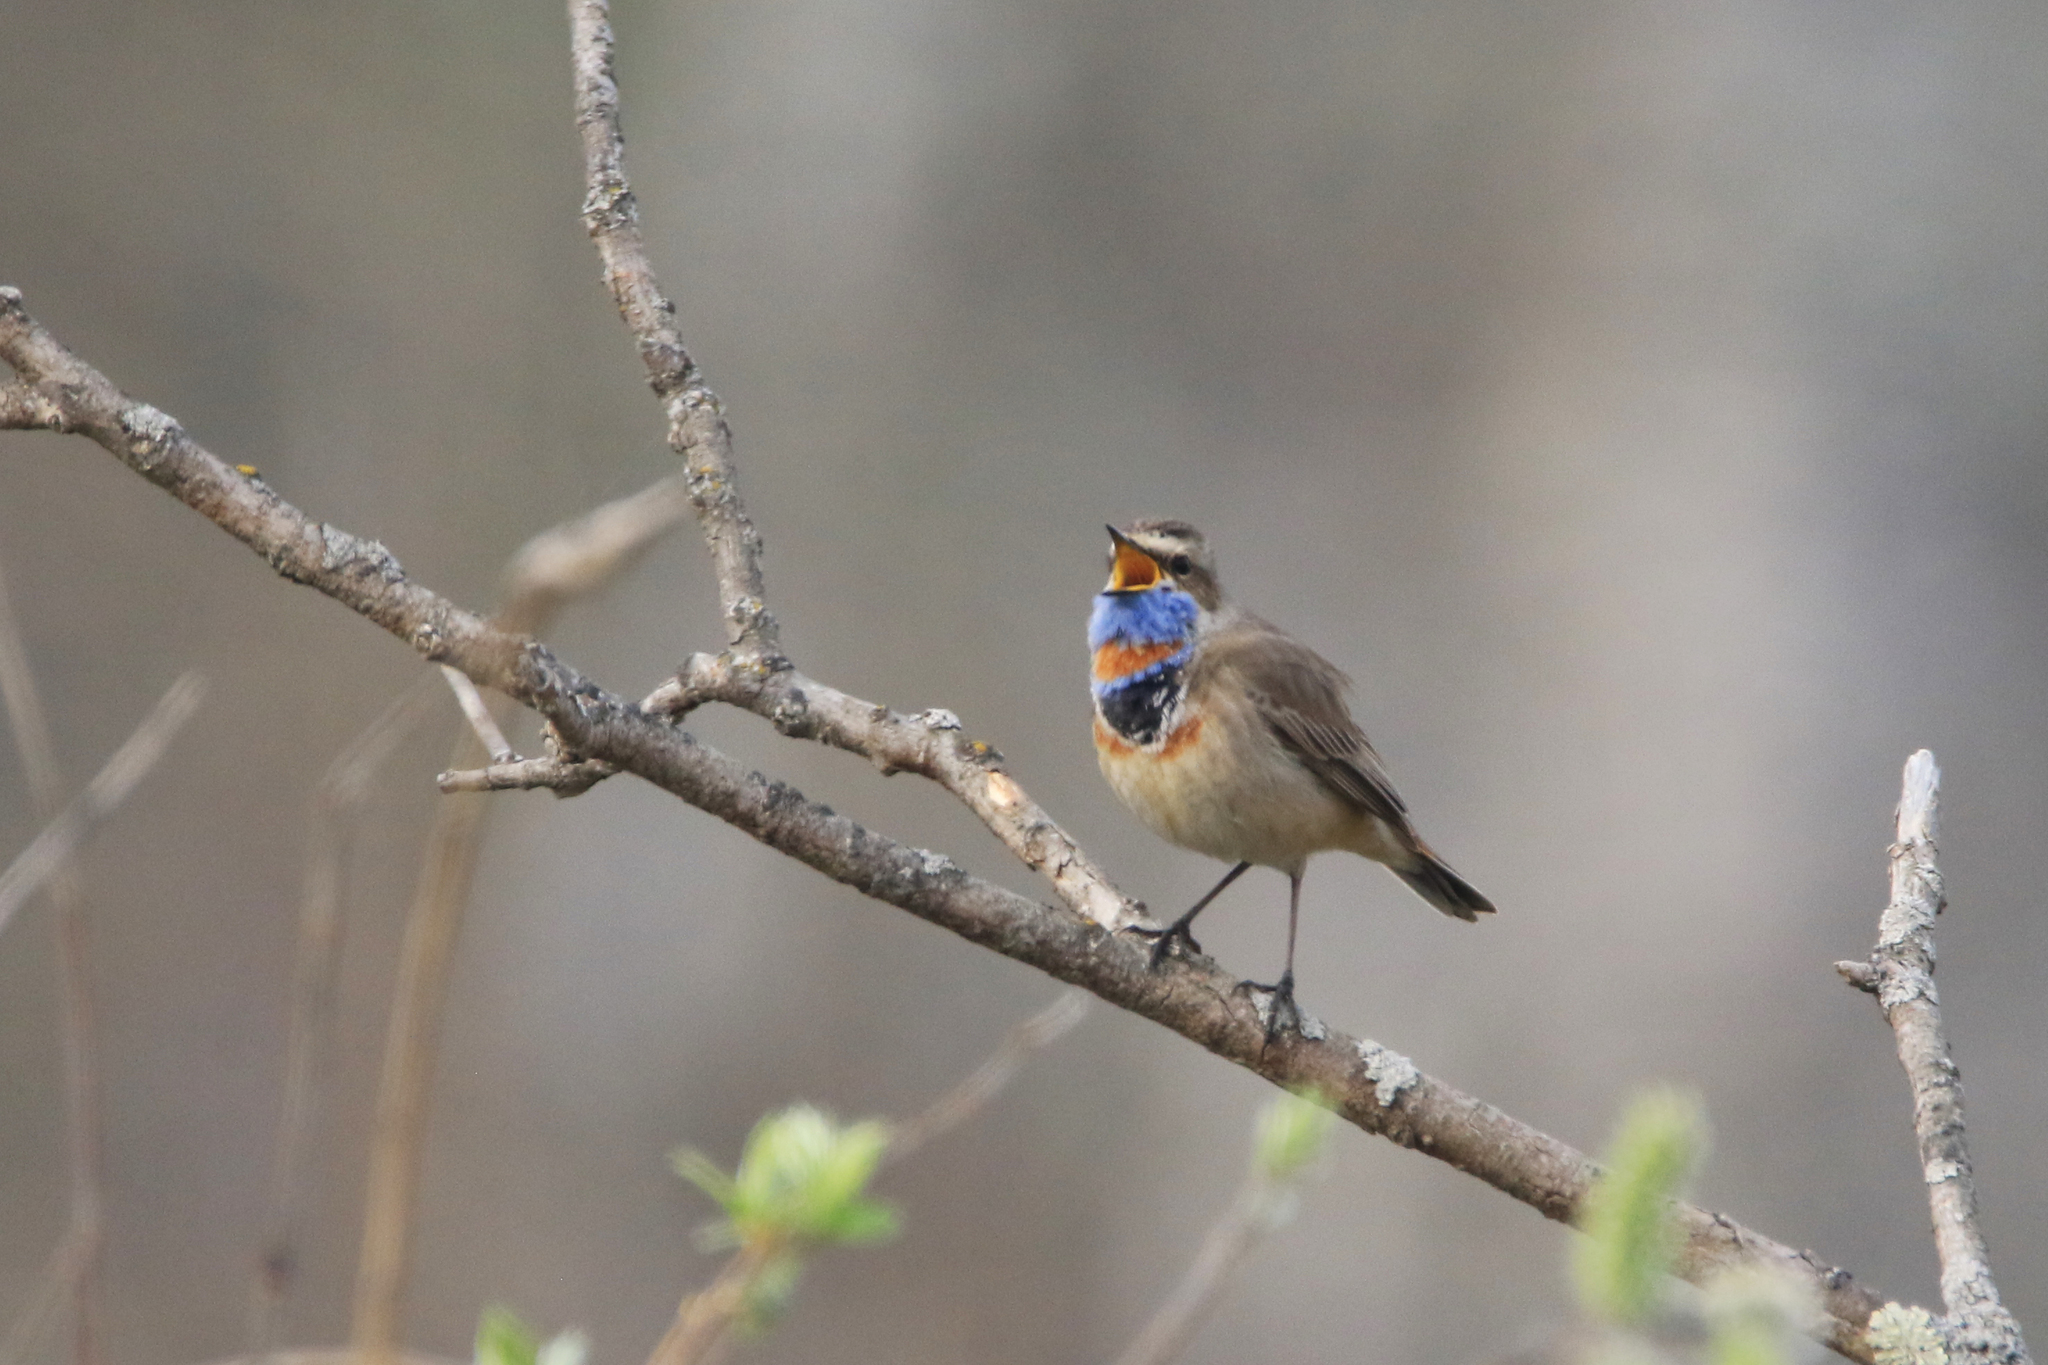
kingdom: Animalia
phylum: Chordata
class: Aves
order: Passeriformes
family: Muscicapidae
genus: Luscinia
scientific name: Luscinia svecica
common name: Bluethroat
